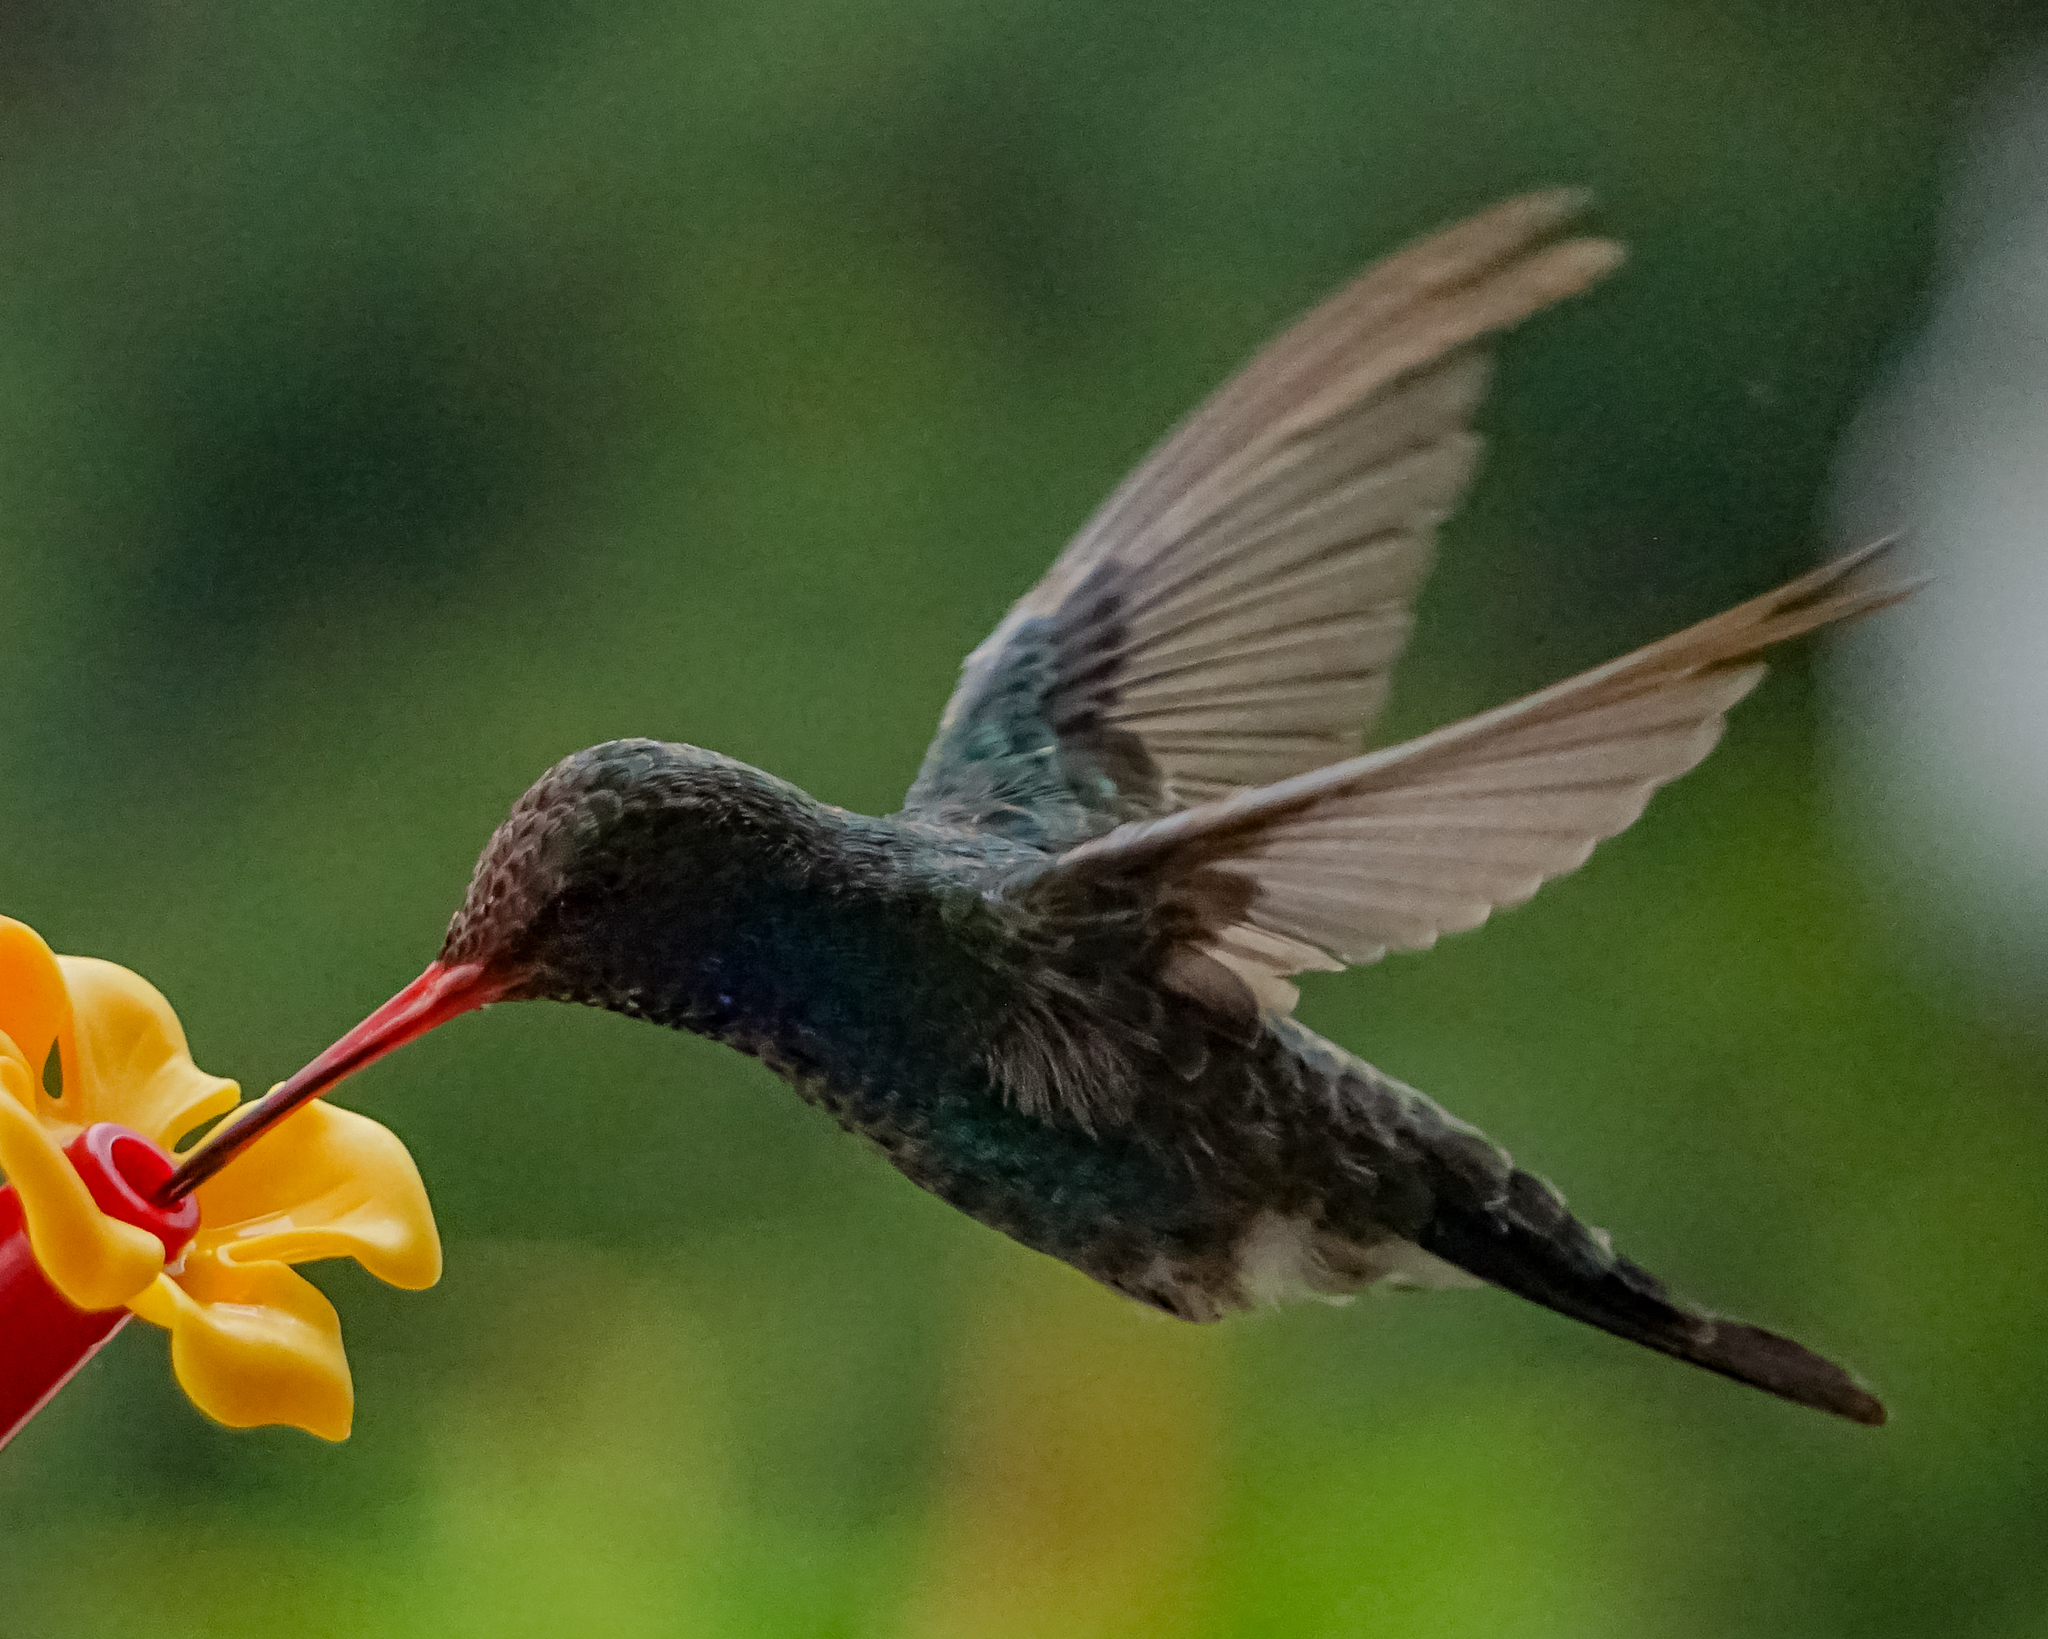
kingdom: Animalia
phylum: Chordata
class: Aves
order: Apodiformes
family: Trochilidae
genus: Cynanthus
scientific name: Cynanthus latirostris
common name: Broad-billed hummingbird
